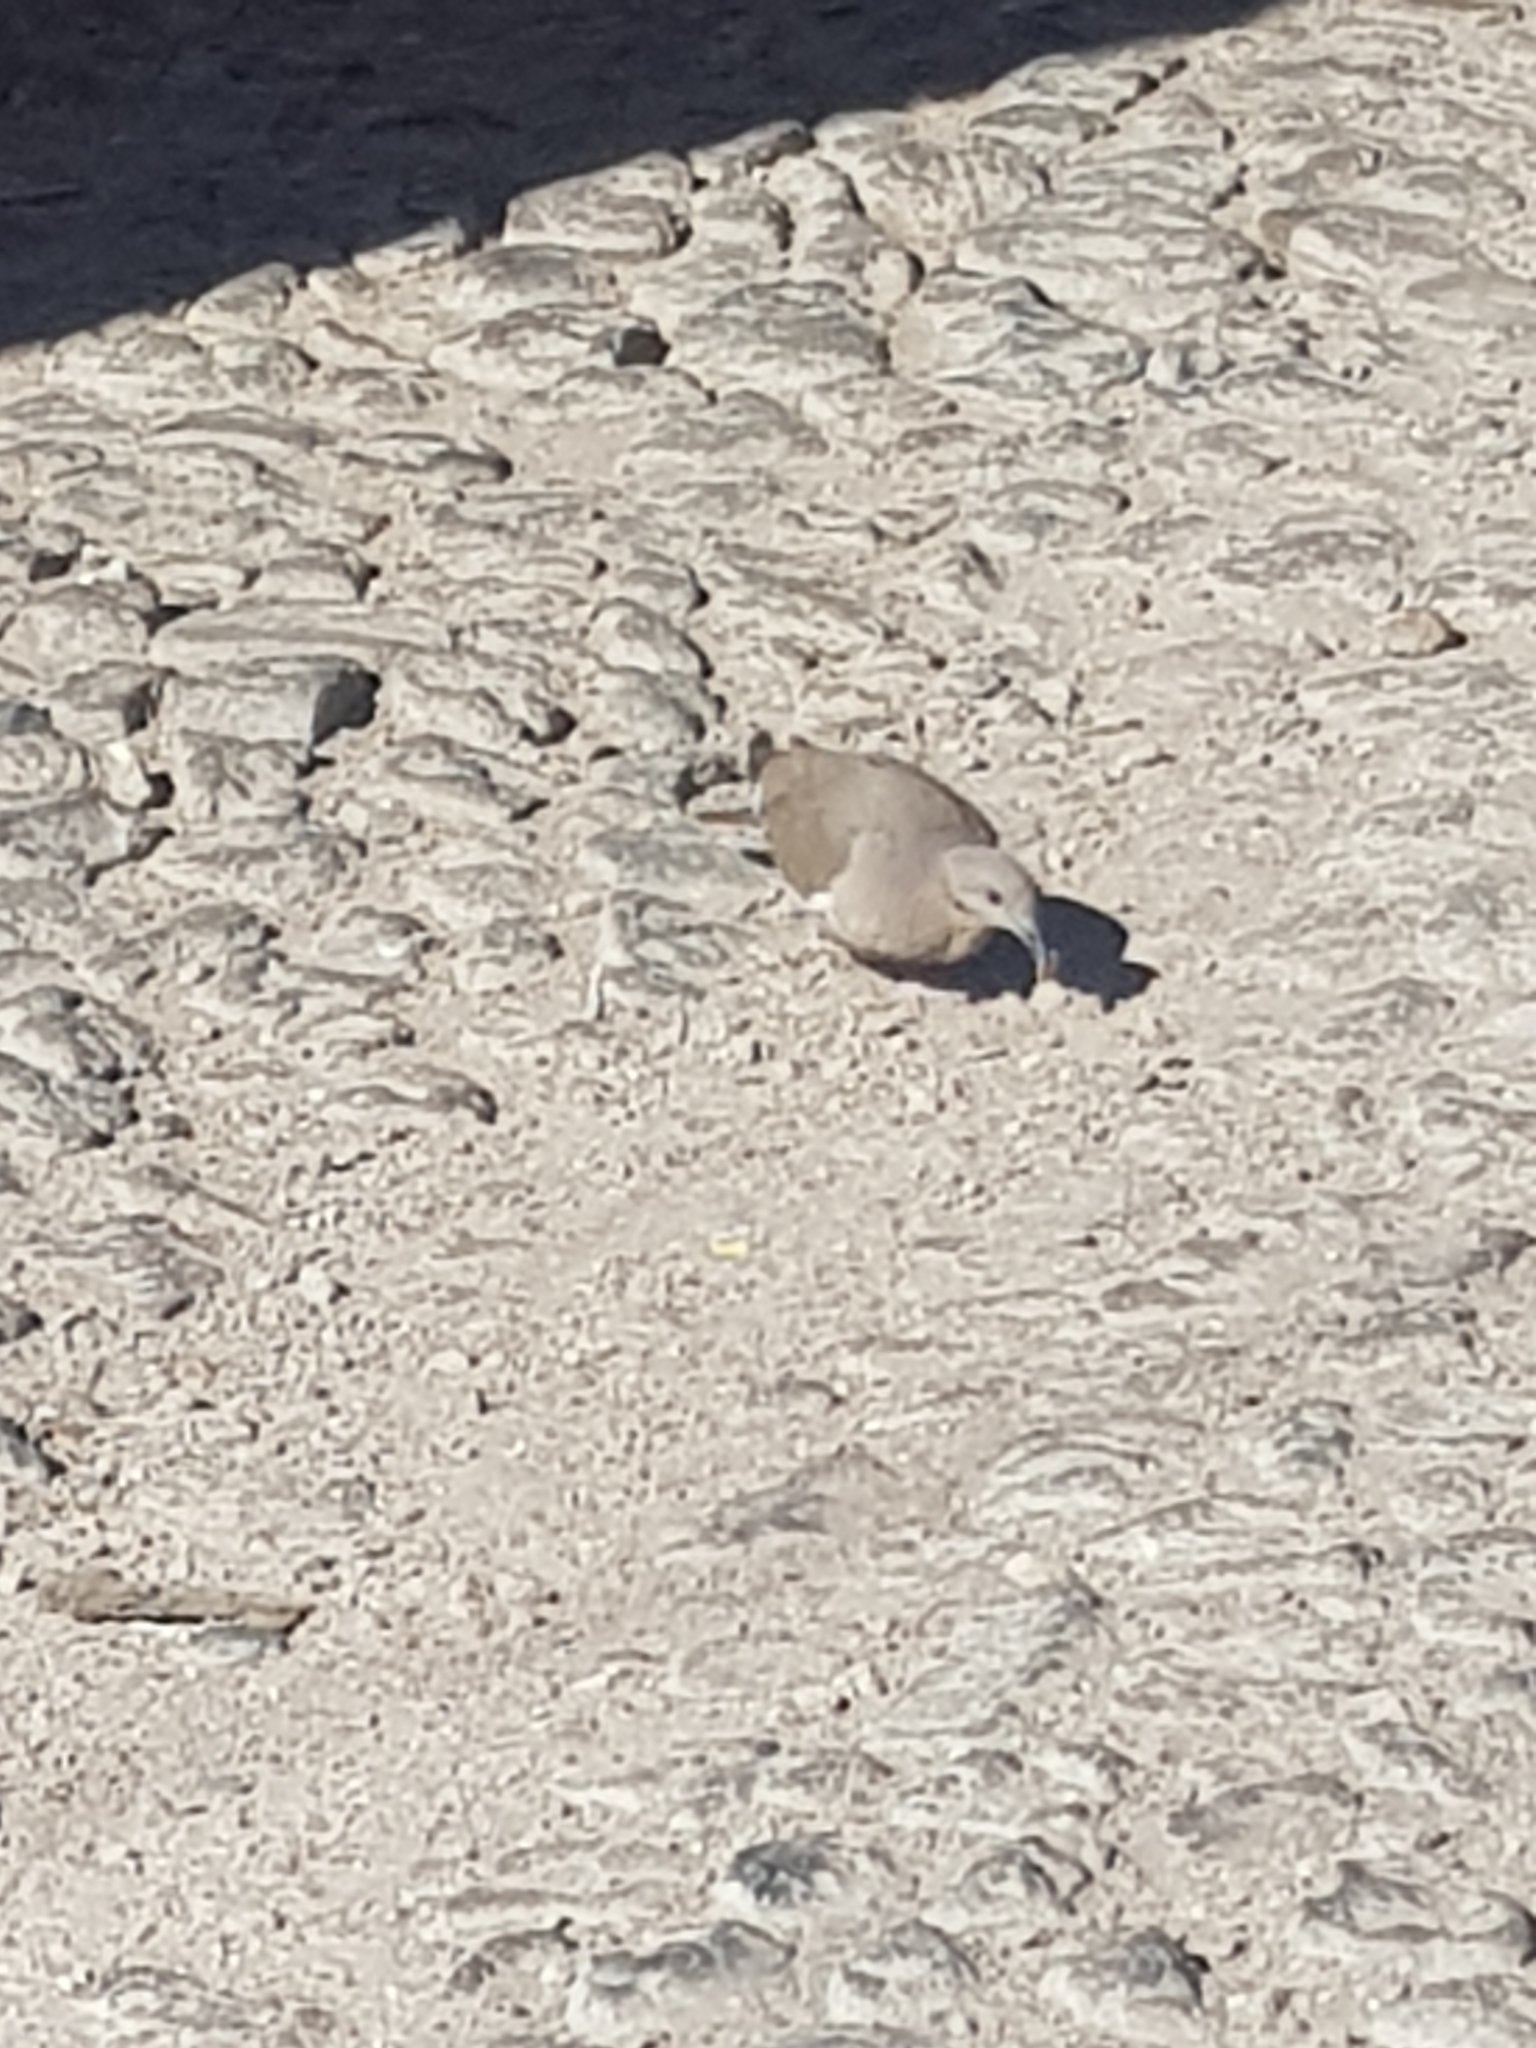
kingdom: Animalia
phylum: Chordata
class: Aves
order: Columbiformes
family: Columbidae
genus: Zenaida
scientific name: Zenaida asiatica
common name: White-winged dove
